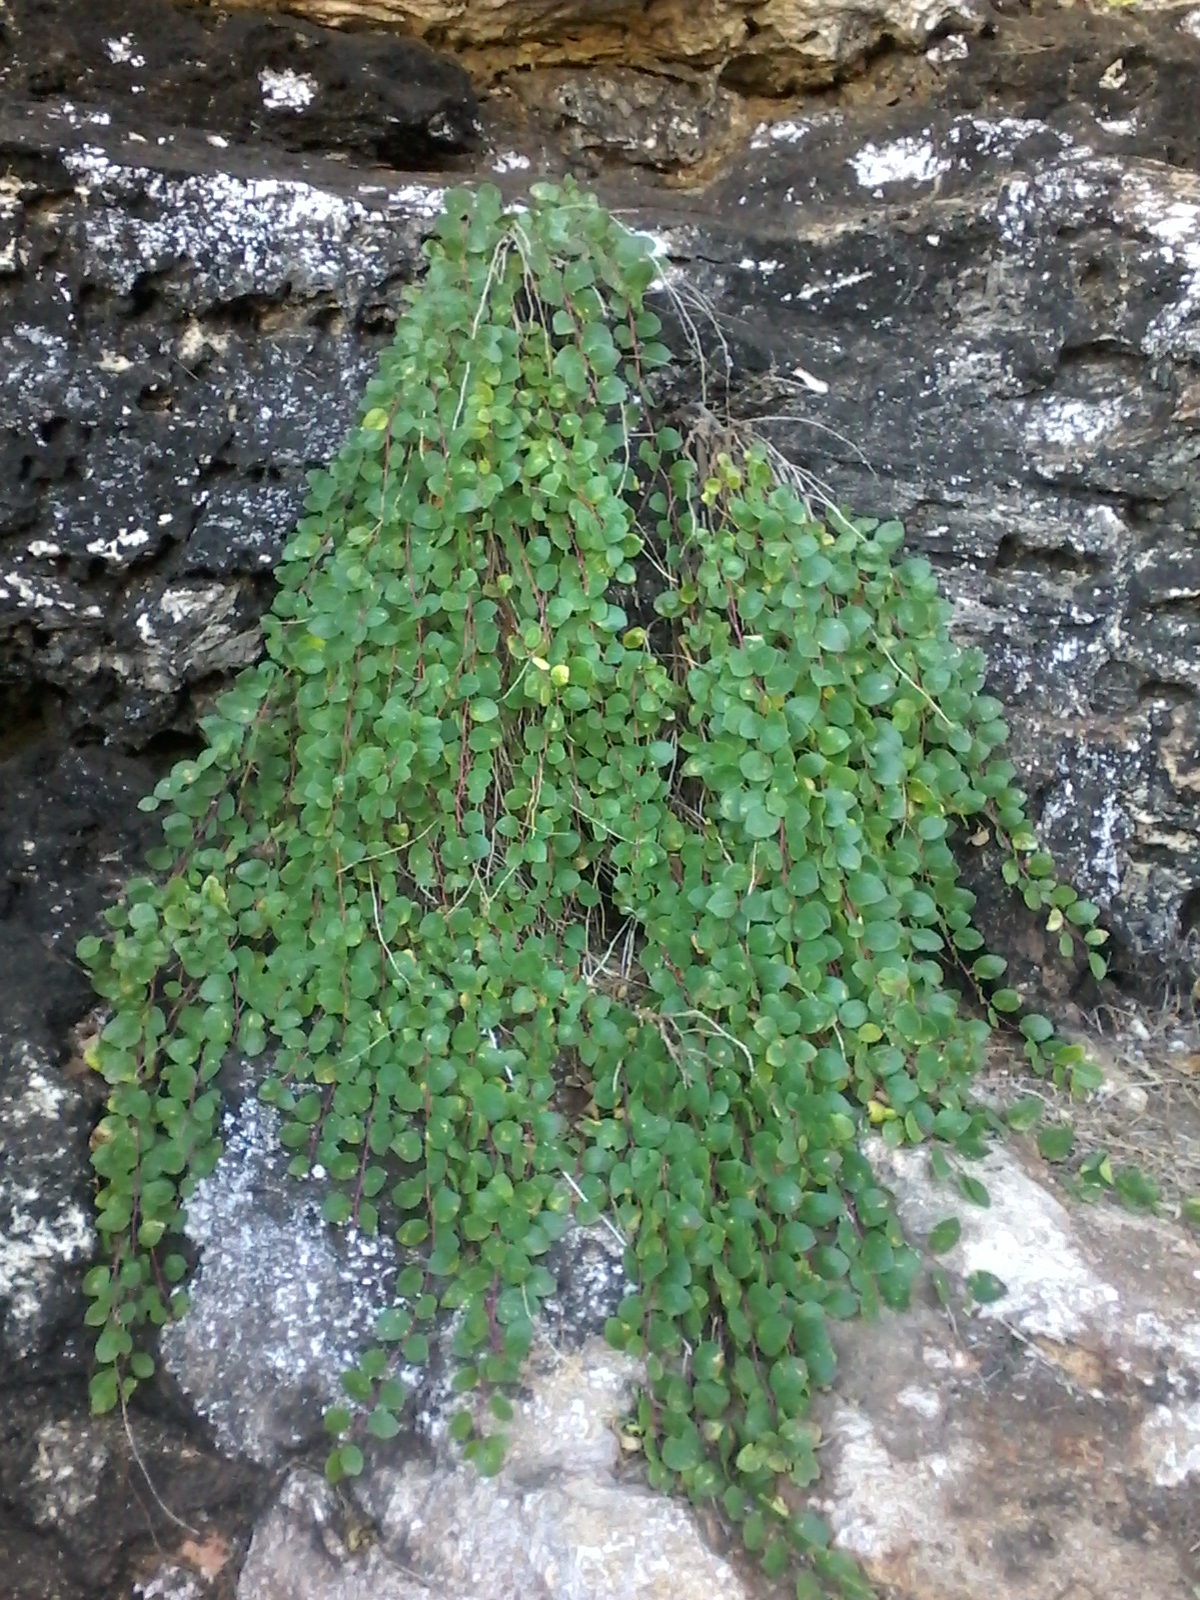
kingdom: Plantae
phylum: Tracheophyta
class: Magnoliopsida
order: Brassicales
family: Capparaceae
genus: Capparis
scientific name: Capparis spinosa
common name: Caper
